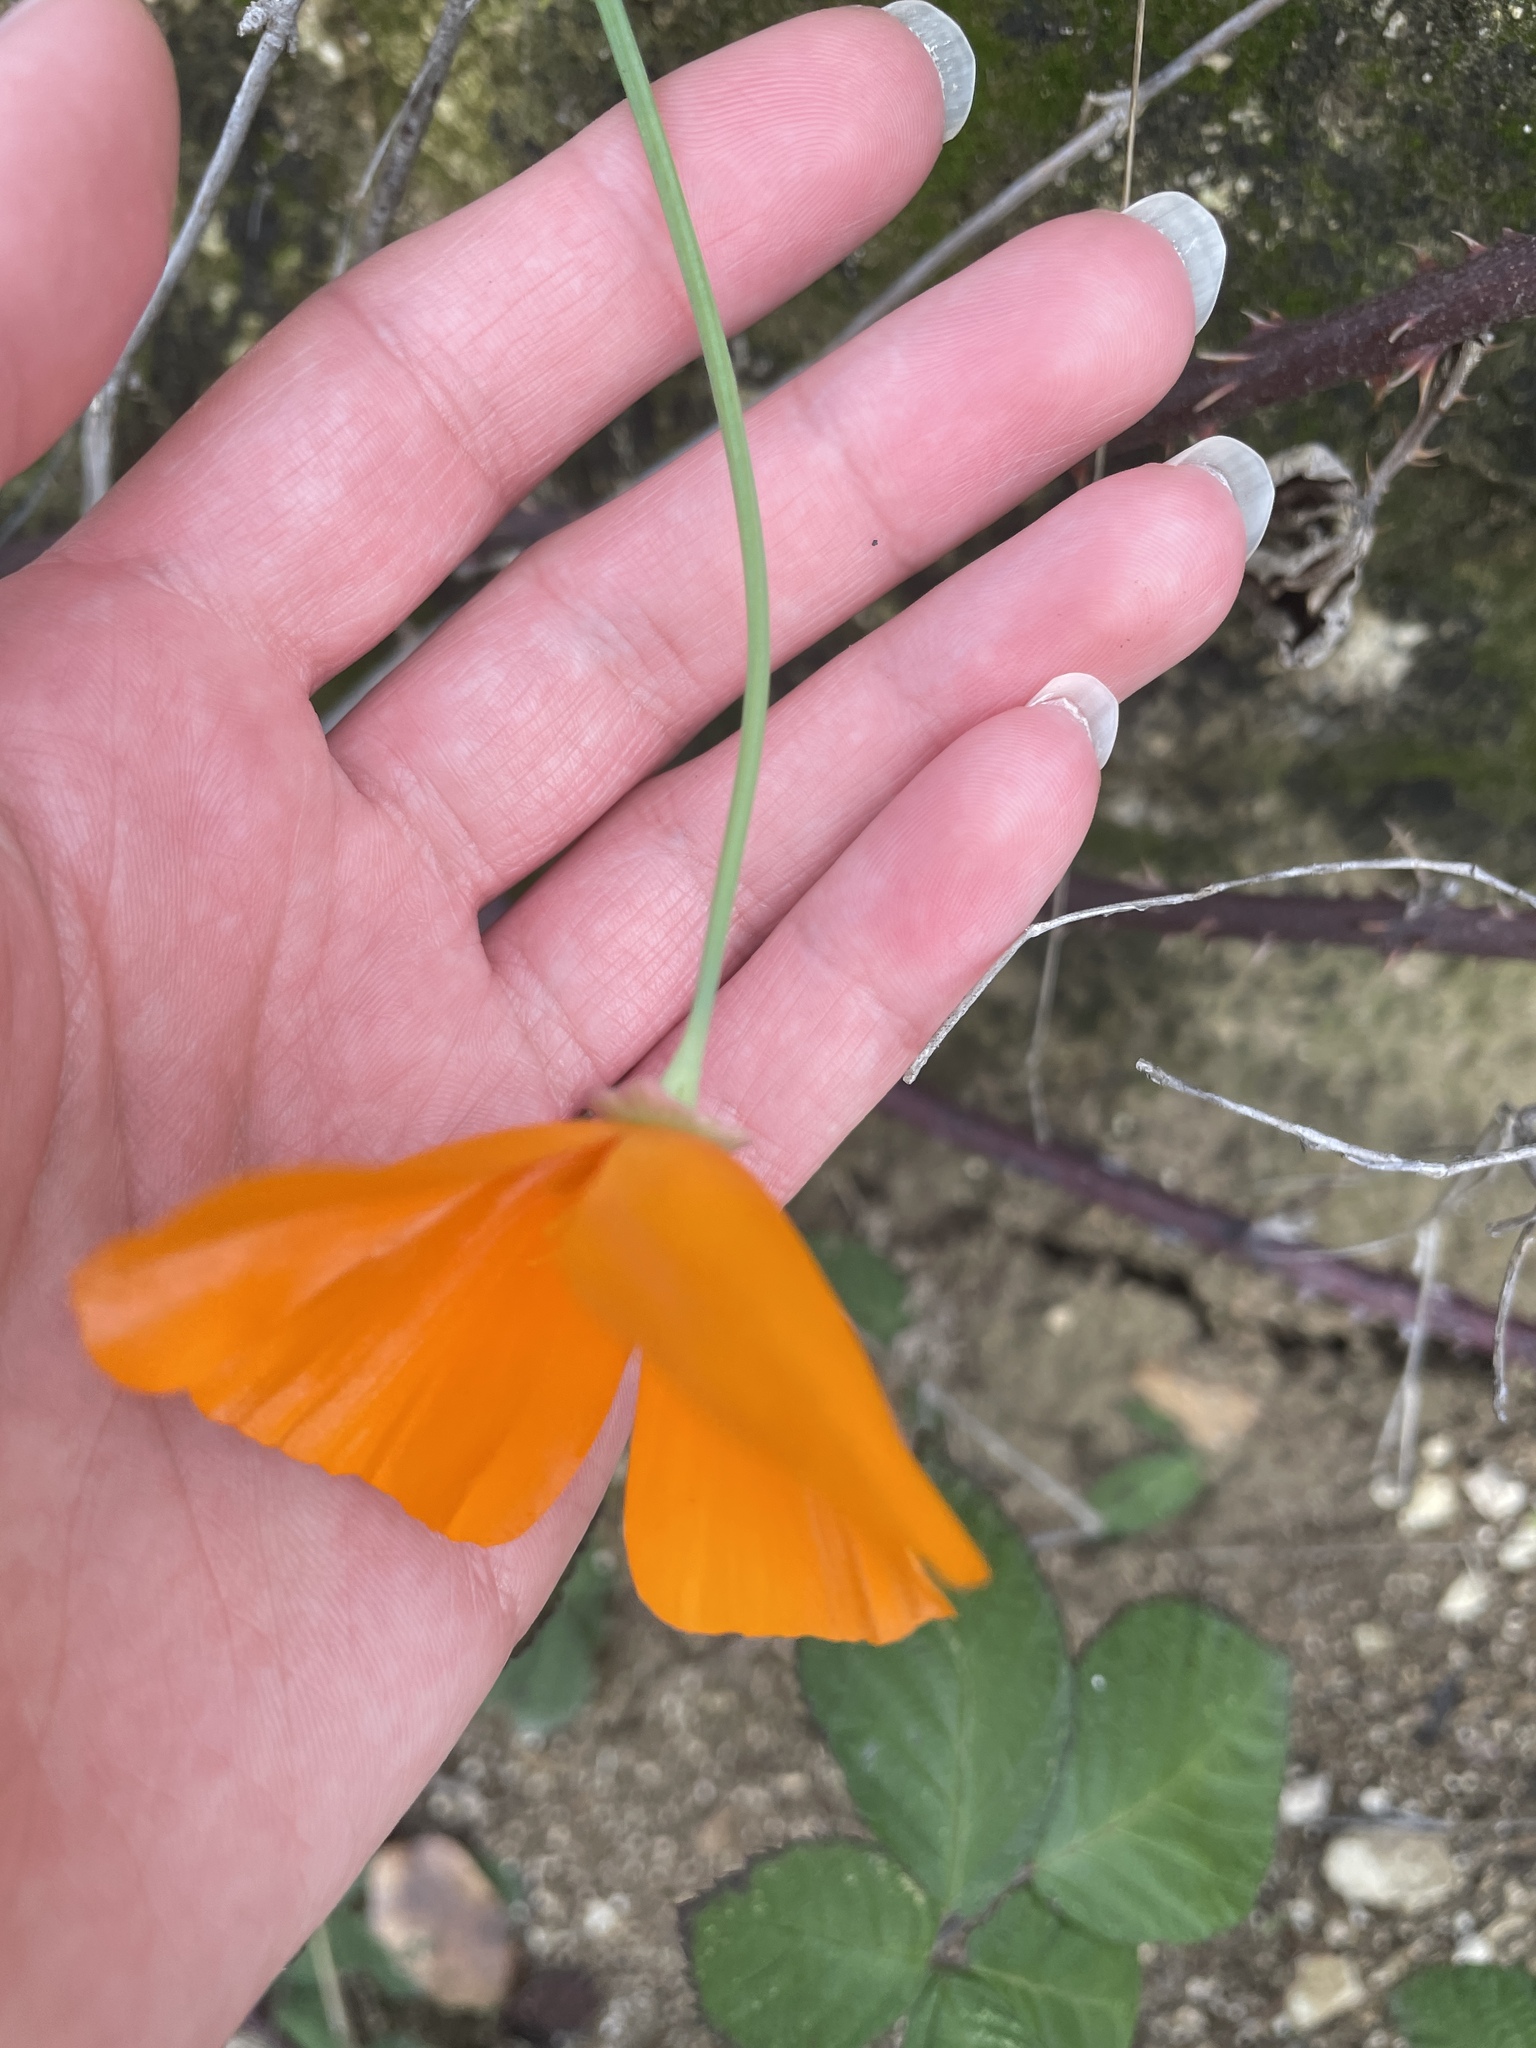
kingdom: Plantae
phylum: Tracheophyta
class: Magnoliopsida
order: Ranunculales
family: Papaveraceae
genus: Eschscholzia
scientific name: Eschscholzia californica
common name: California poppy
